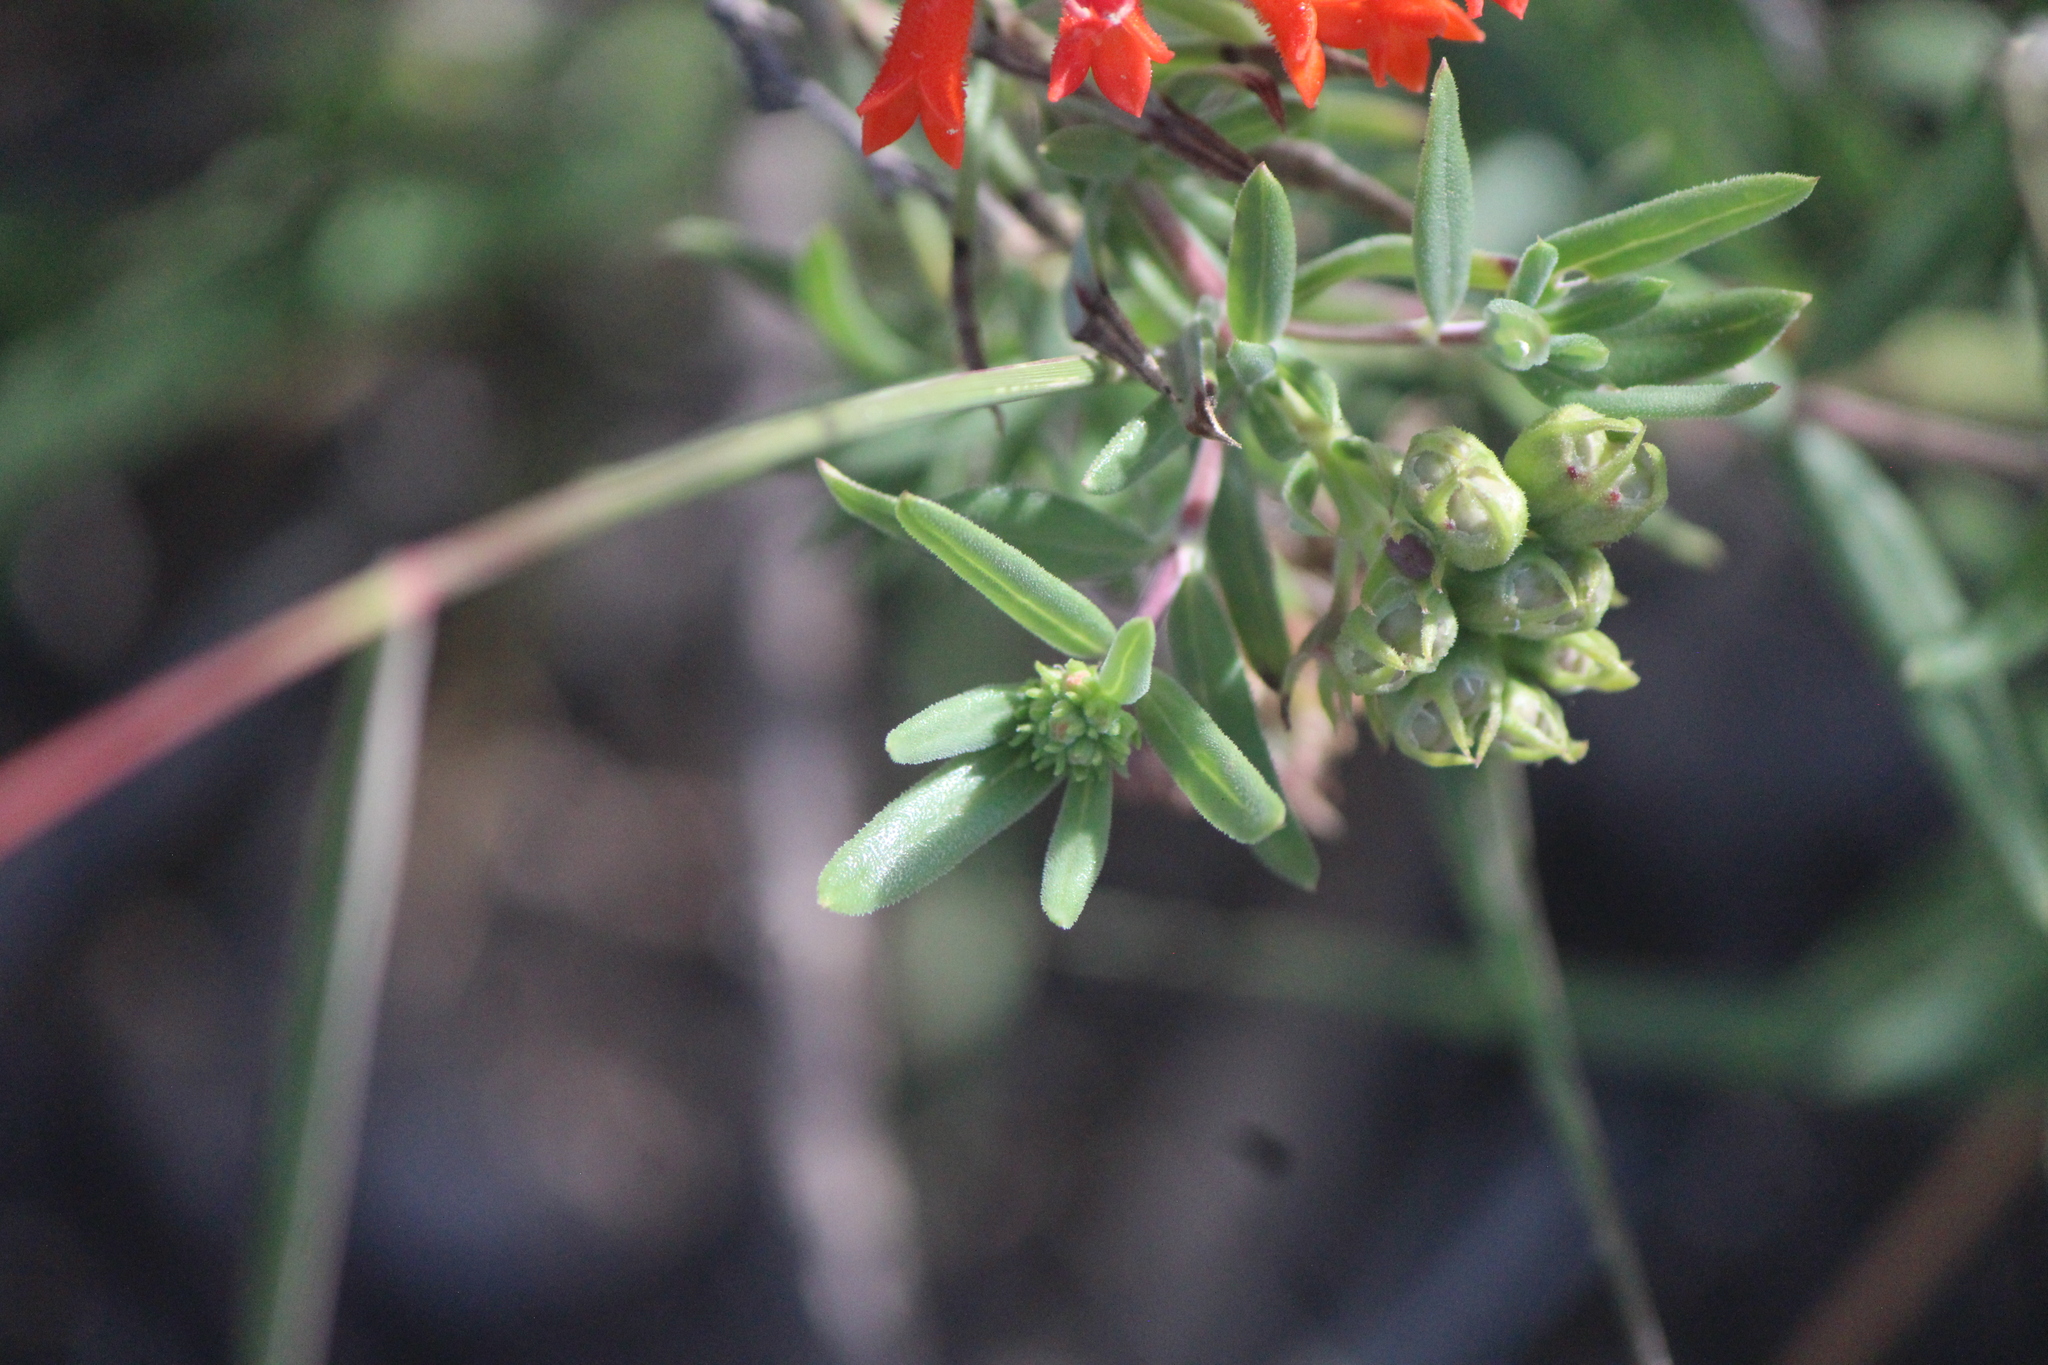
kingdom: Plantae
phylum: Tracheophyta
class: Magnoliopsida
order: Gentianales
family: Rubiaceae
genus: Bouvardia
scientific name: Bouvardia ternifolia
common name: Scarlet bouvardia
